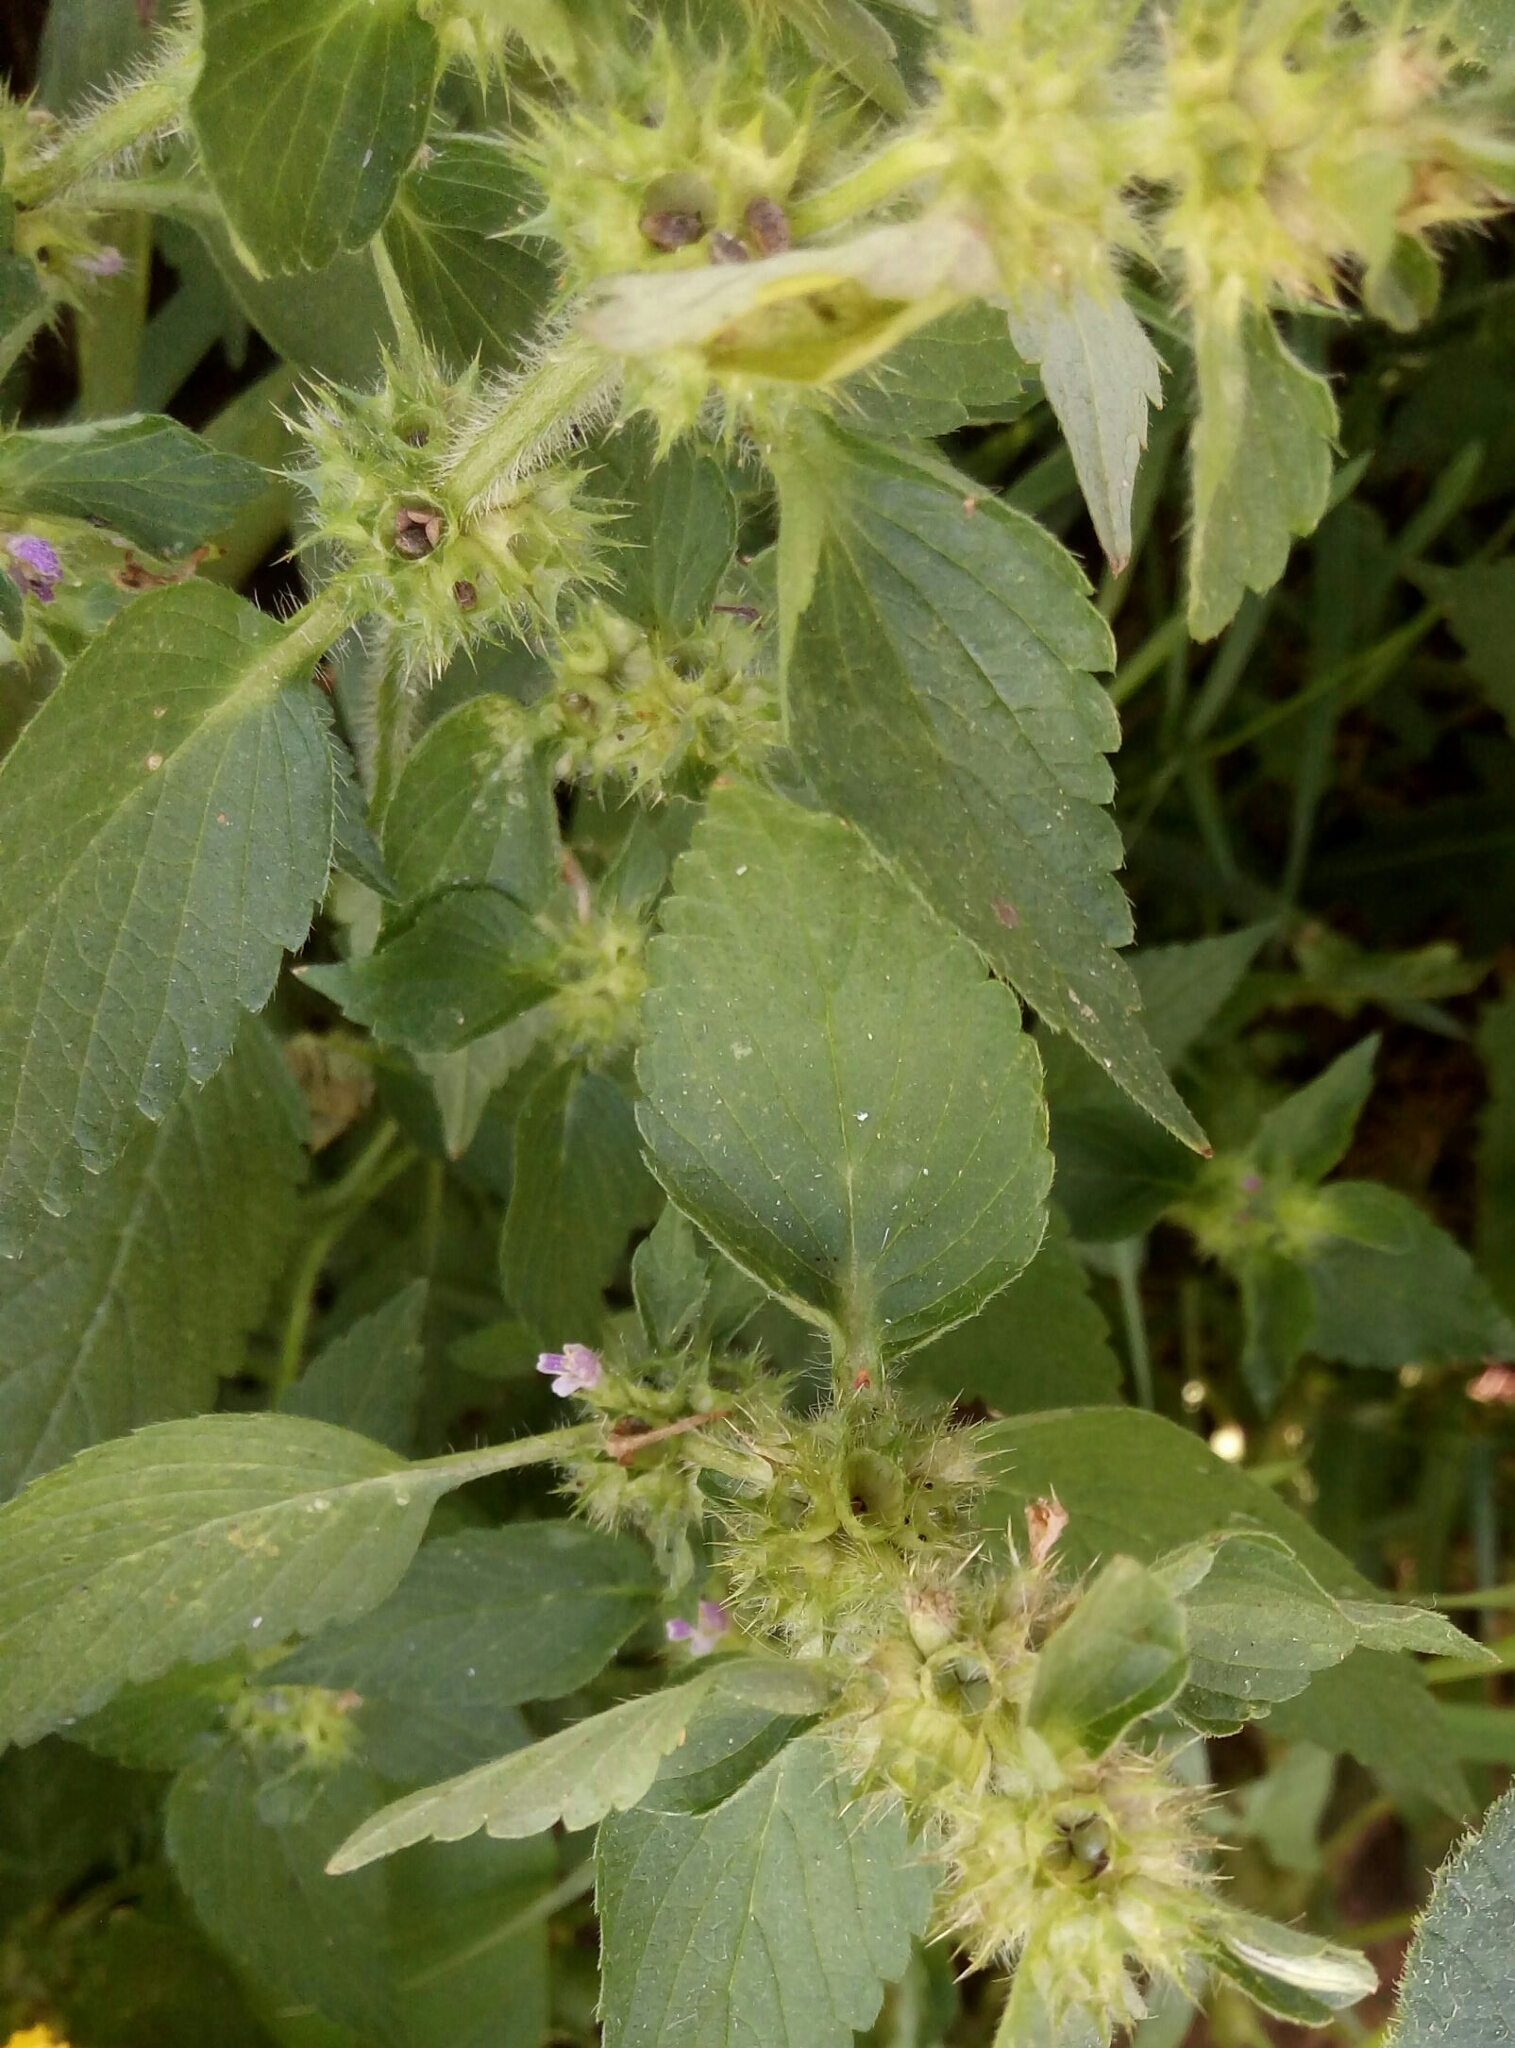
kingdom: Plantae
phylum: Tracheophyta
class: Magnoliopsida
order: Lamiales
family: Lamiaceae
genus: Galeopsis
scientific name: Galeopsis bifida
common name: Bifid hemp-nettle
